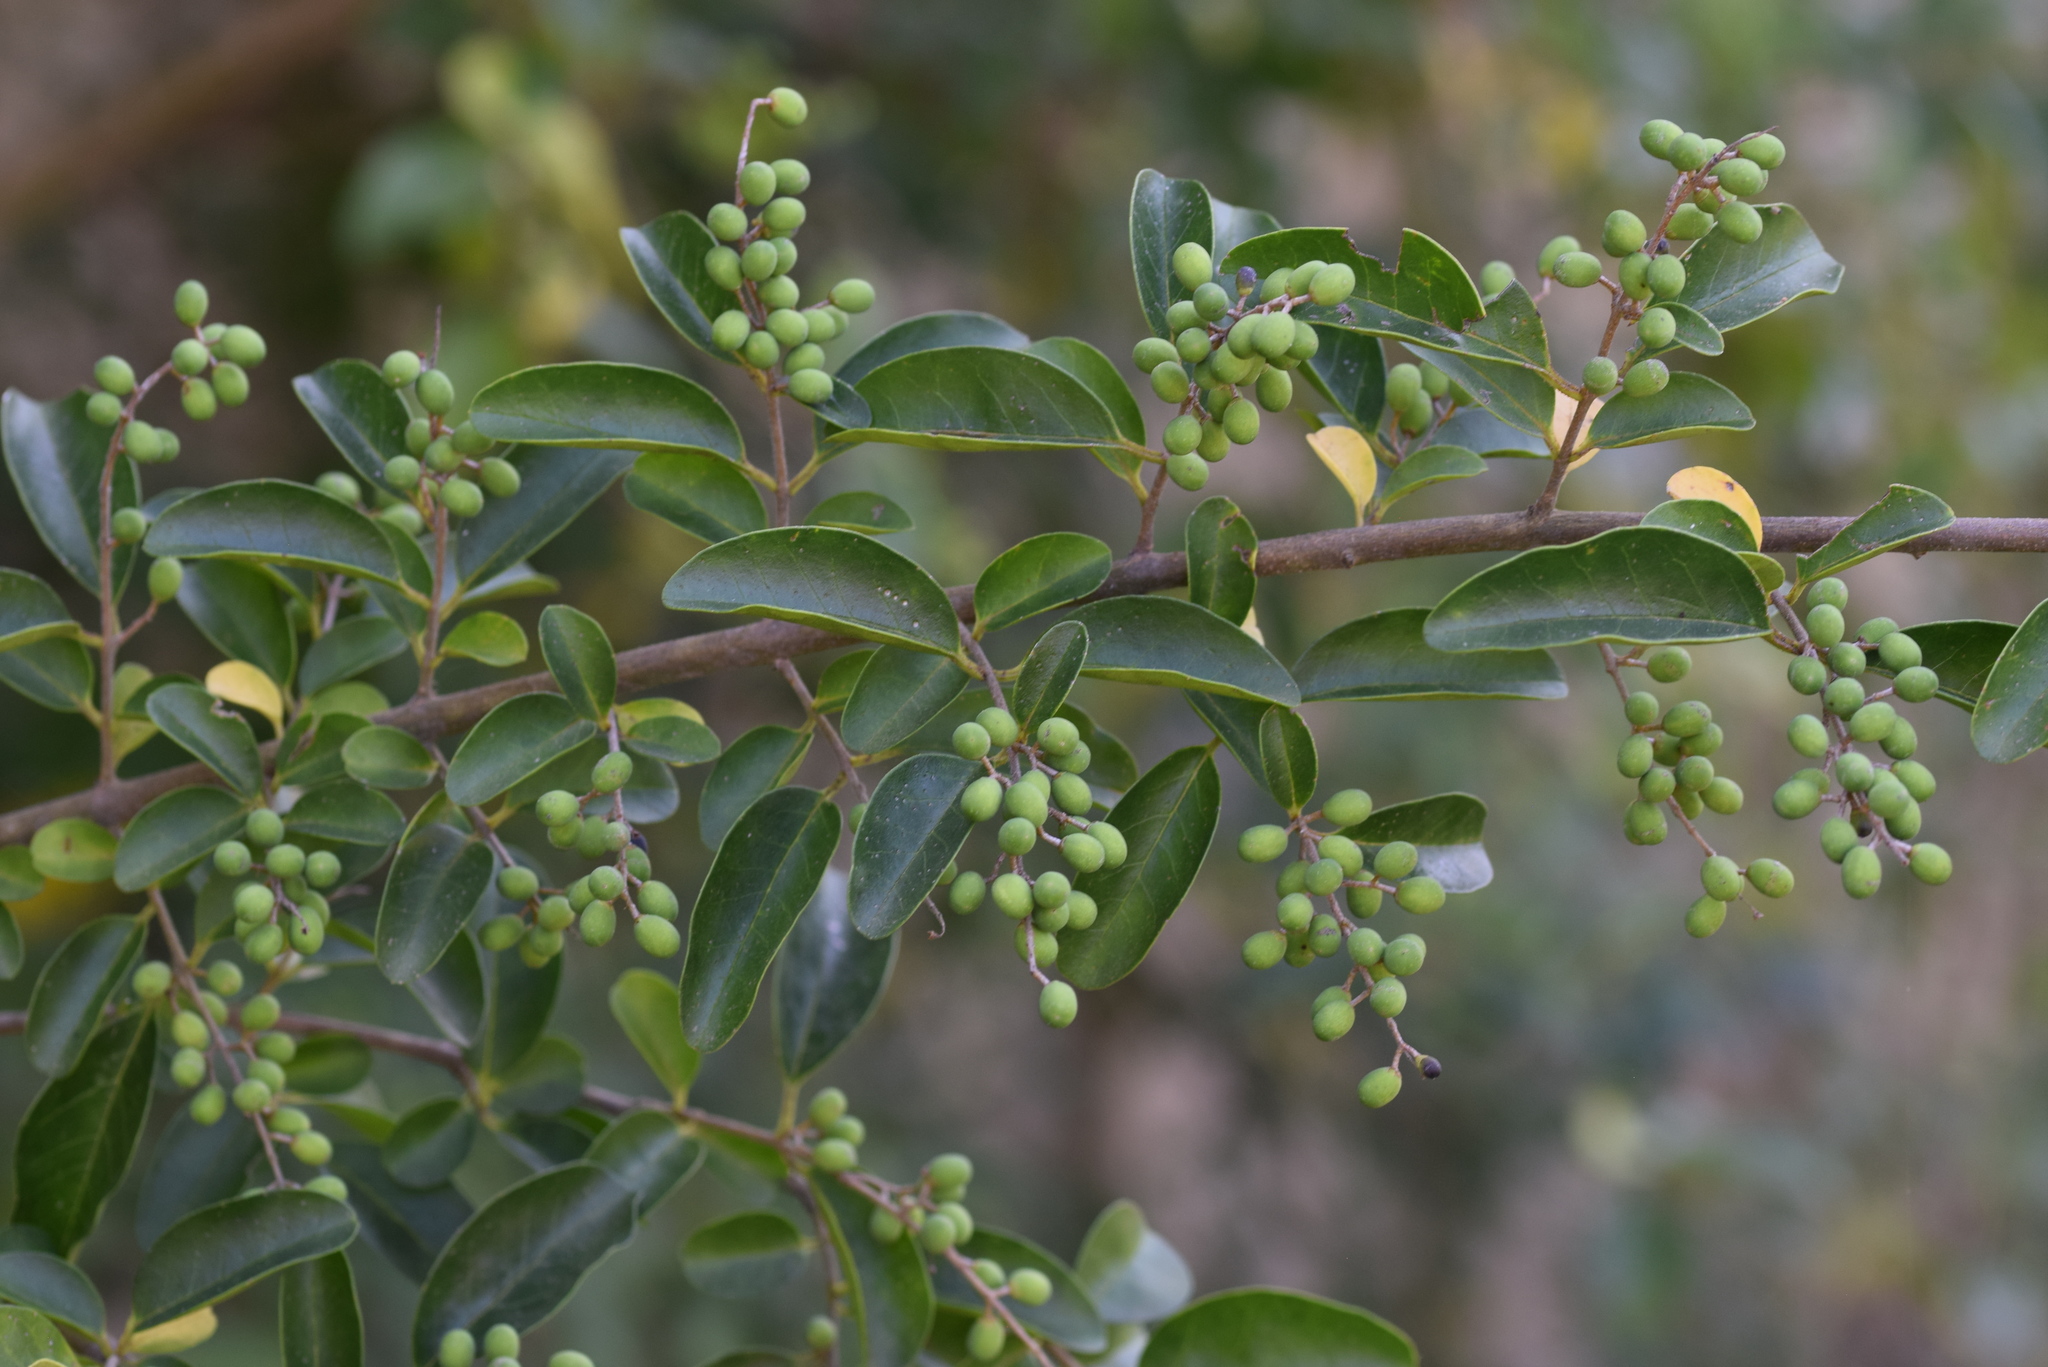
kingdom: Plantae
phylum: Tracheophyta
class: Magnoliopsida
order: Lamiales
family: Oleaceae
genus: Ligustrum
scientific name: Ligustrum sinense
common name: Chinese privet
